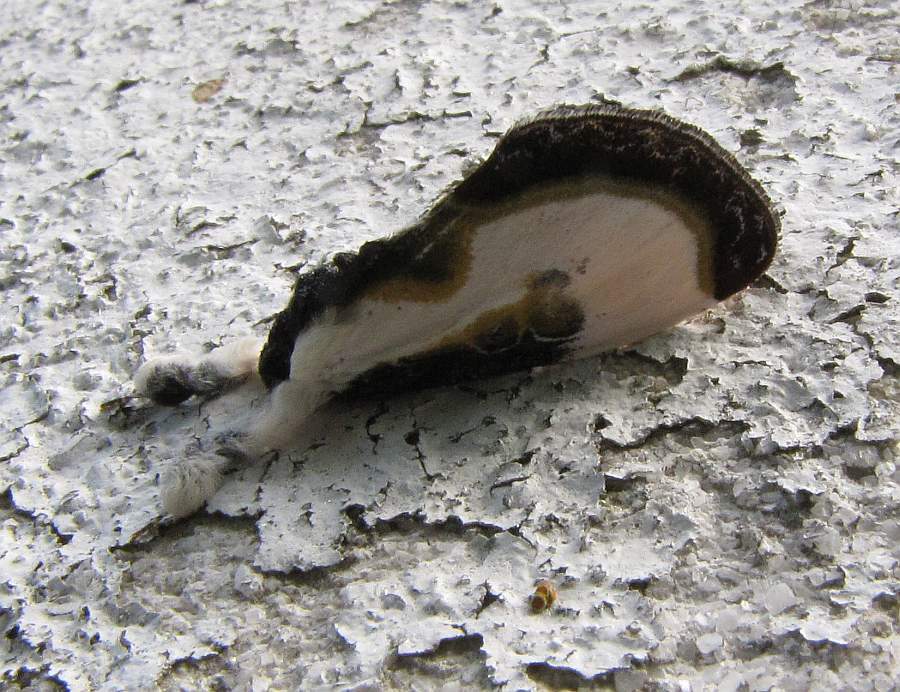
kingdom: Animalia
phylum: Arthropoda
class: Insecta
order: Lepidoptera
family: Noctuidae
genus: Eudryas
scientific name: Eudryas grata
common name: Beautiful wood-nymph
